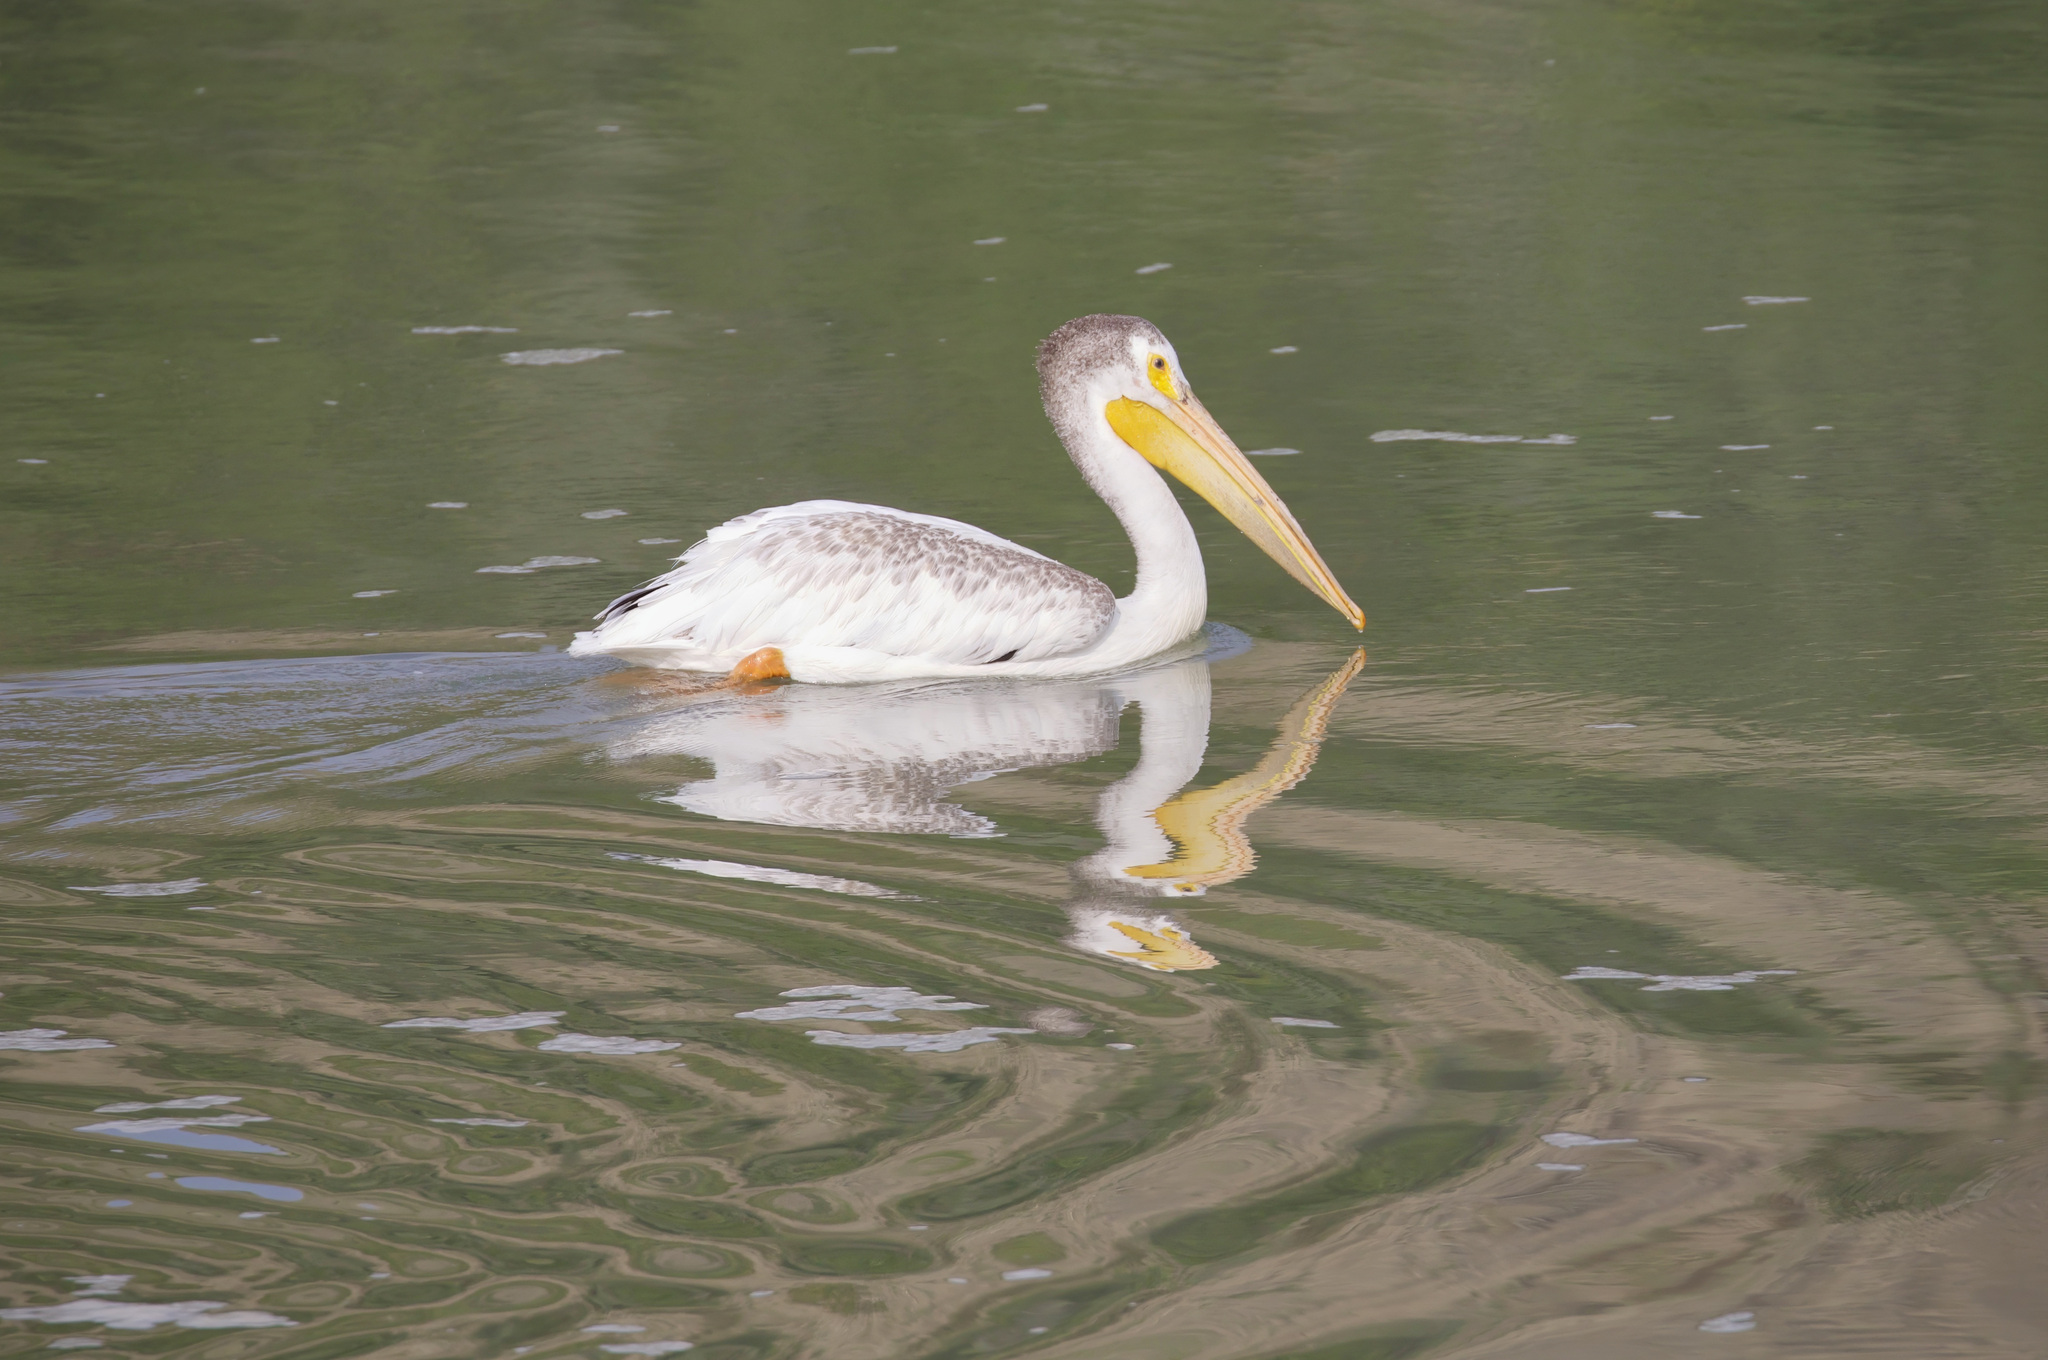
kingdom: Animalia
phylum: Chordata
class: Aves
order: Pelecaniformes
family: Pelecanidae
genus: Pelecanus
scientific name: Pelecanus erythrorhynchos
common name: American white pelican
